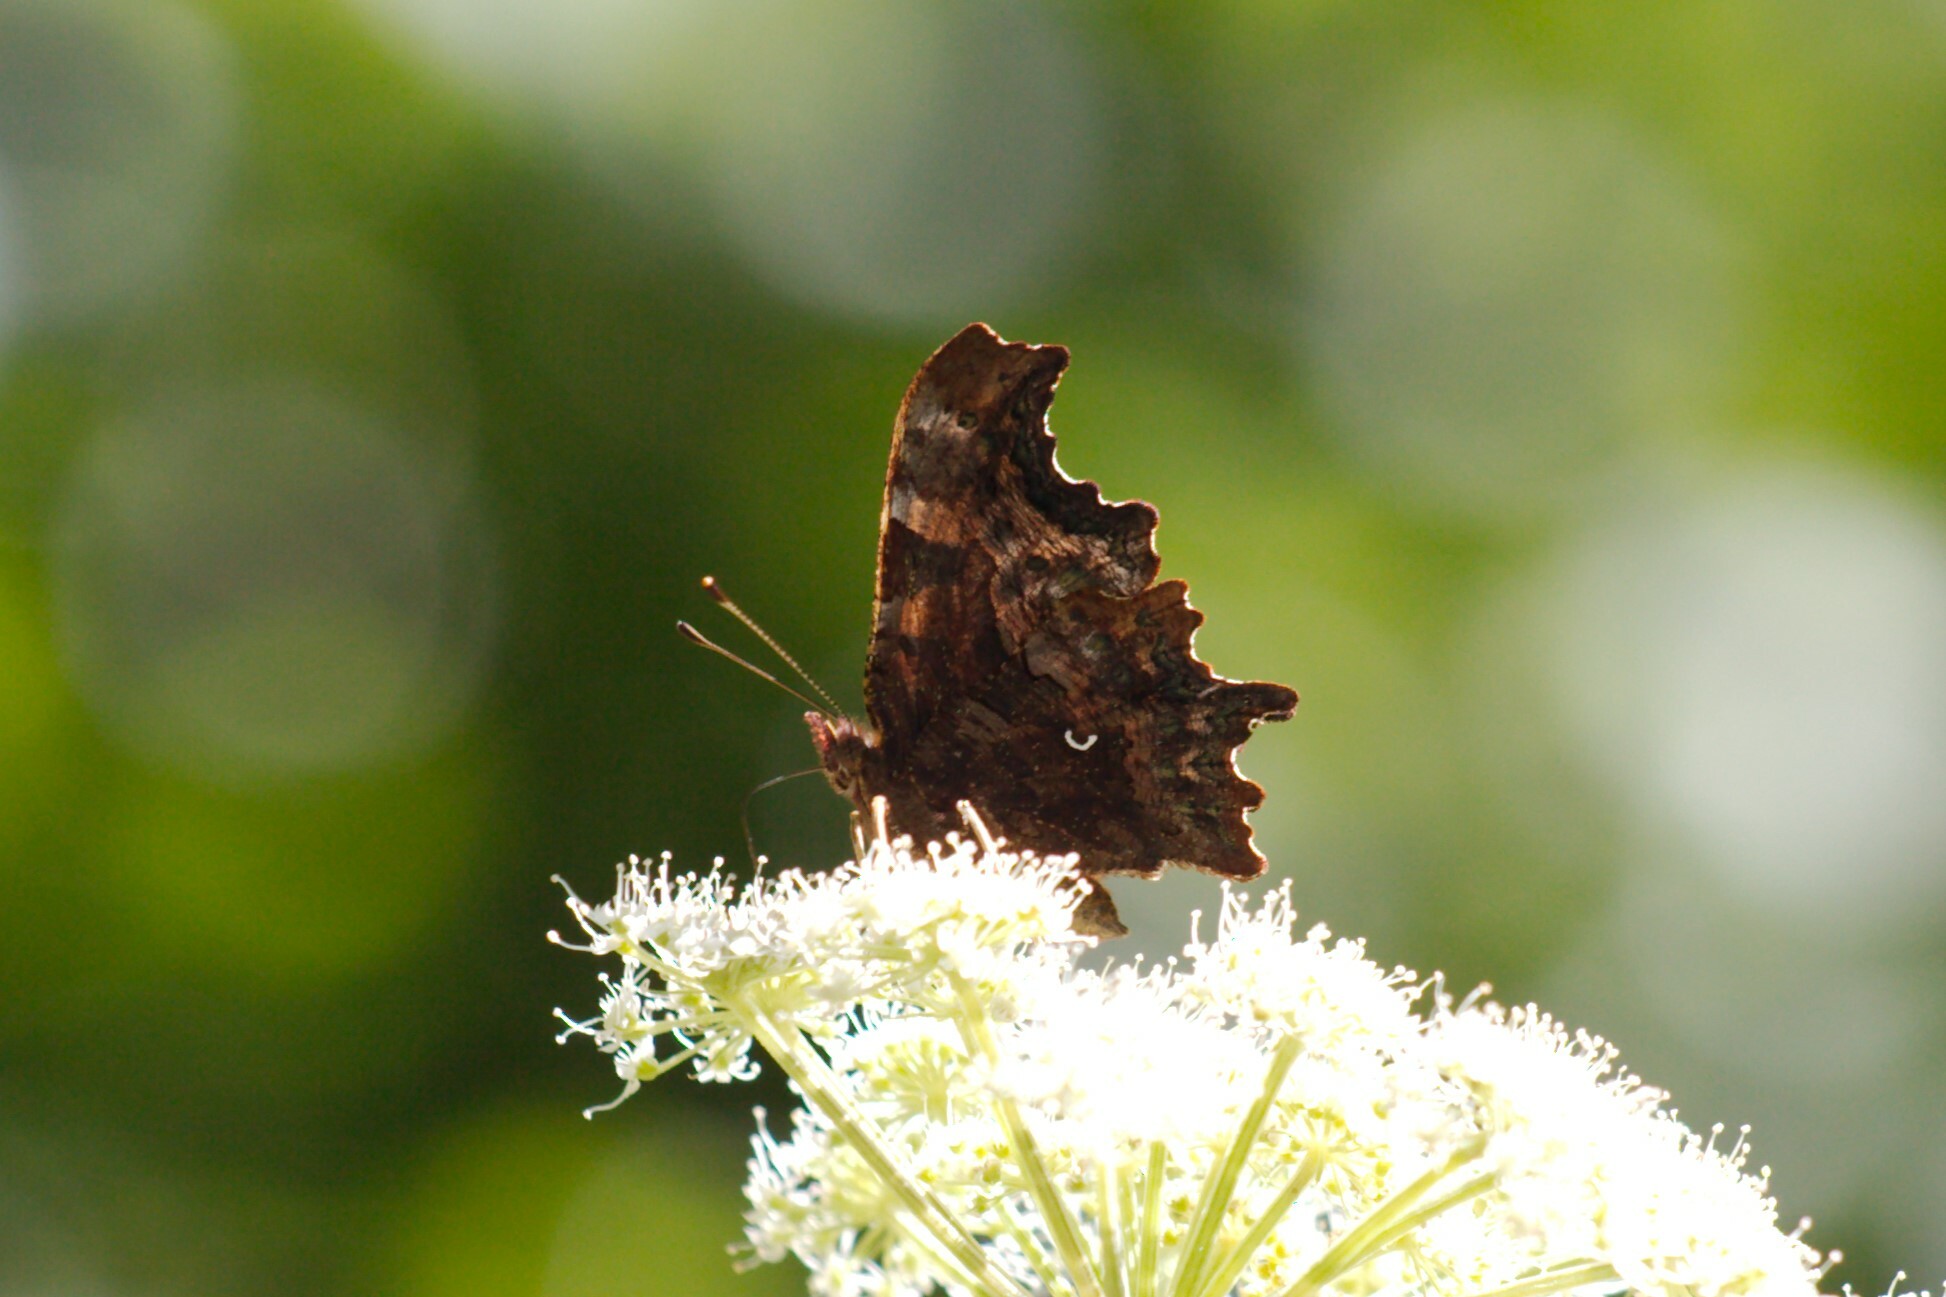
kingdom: Animalia
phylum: Arthropoda
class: Insecta
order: Lepidoptera
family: Nymphalidae
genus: Polygonia
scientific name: Polygonia c-album
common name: Comma
